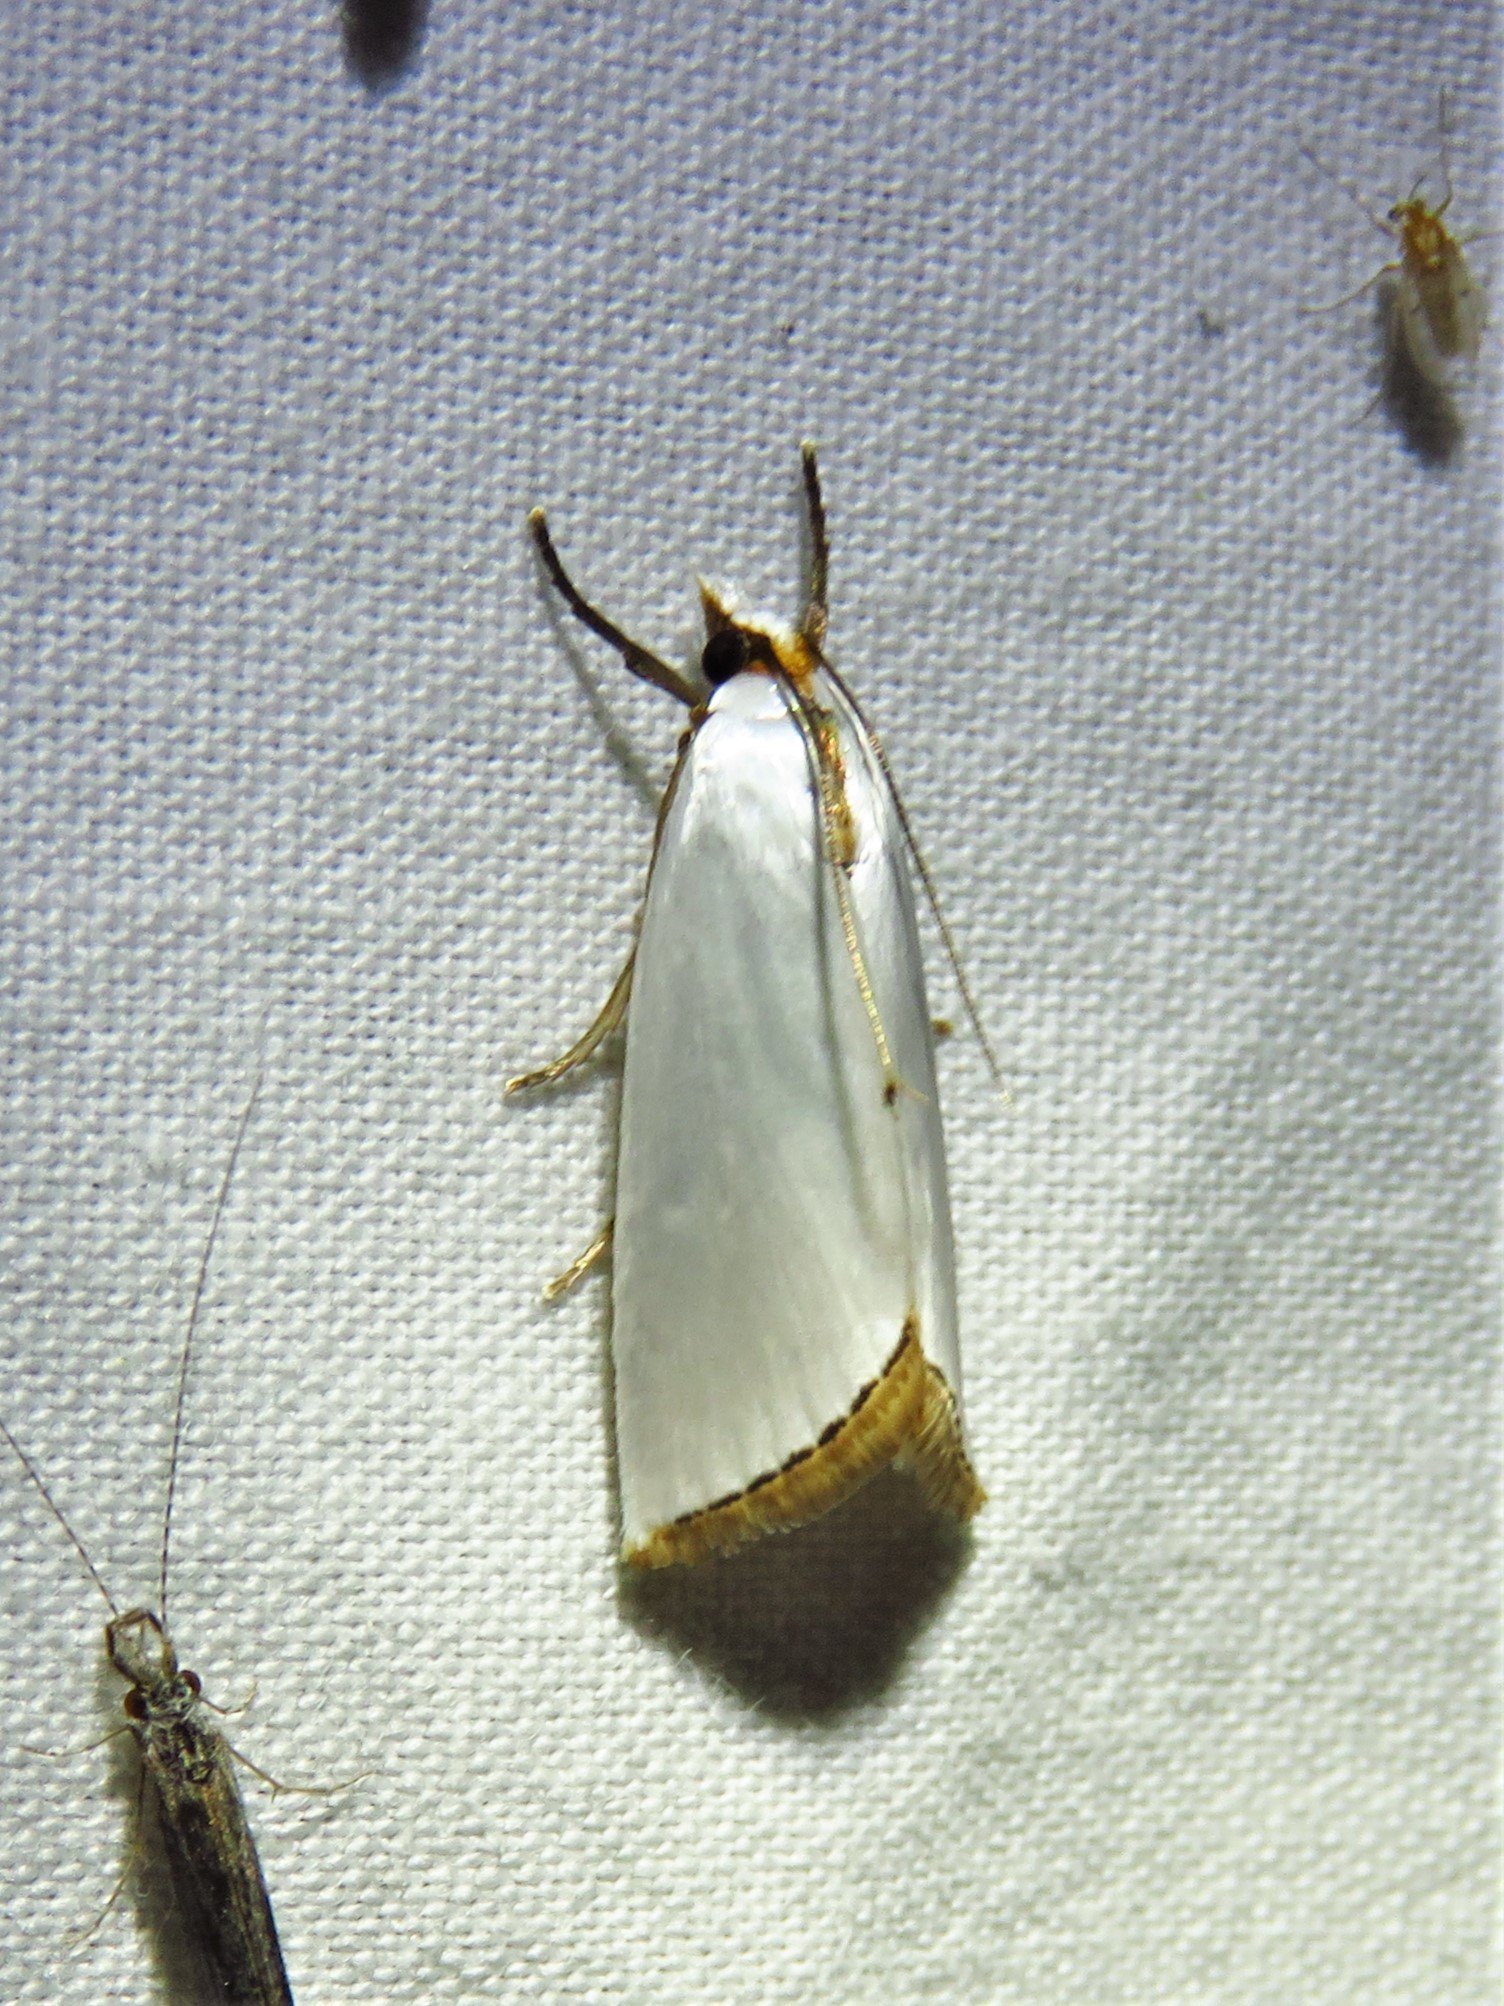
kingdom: Animalia
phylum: Arthropoda
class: Insecta
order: Lepidoptera
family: Crambidae
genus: Argyria
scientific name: Argyria nivalis
